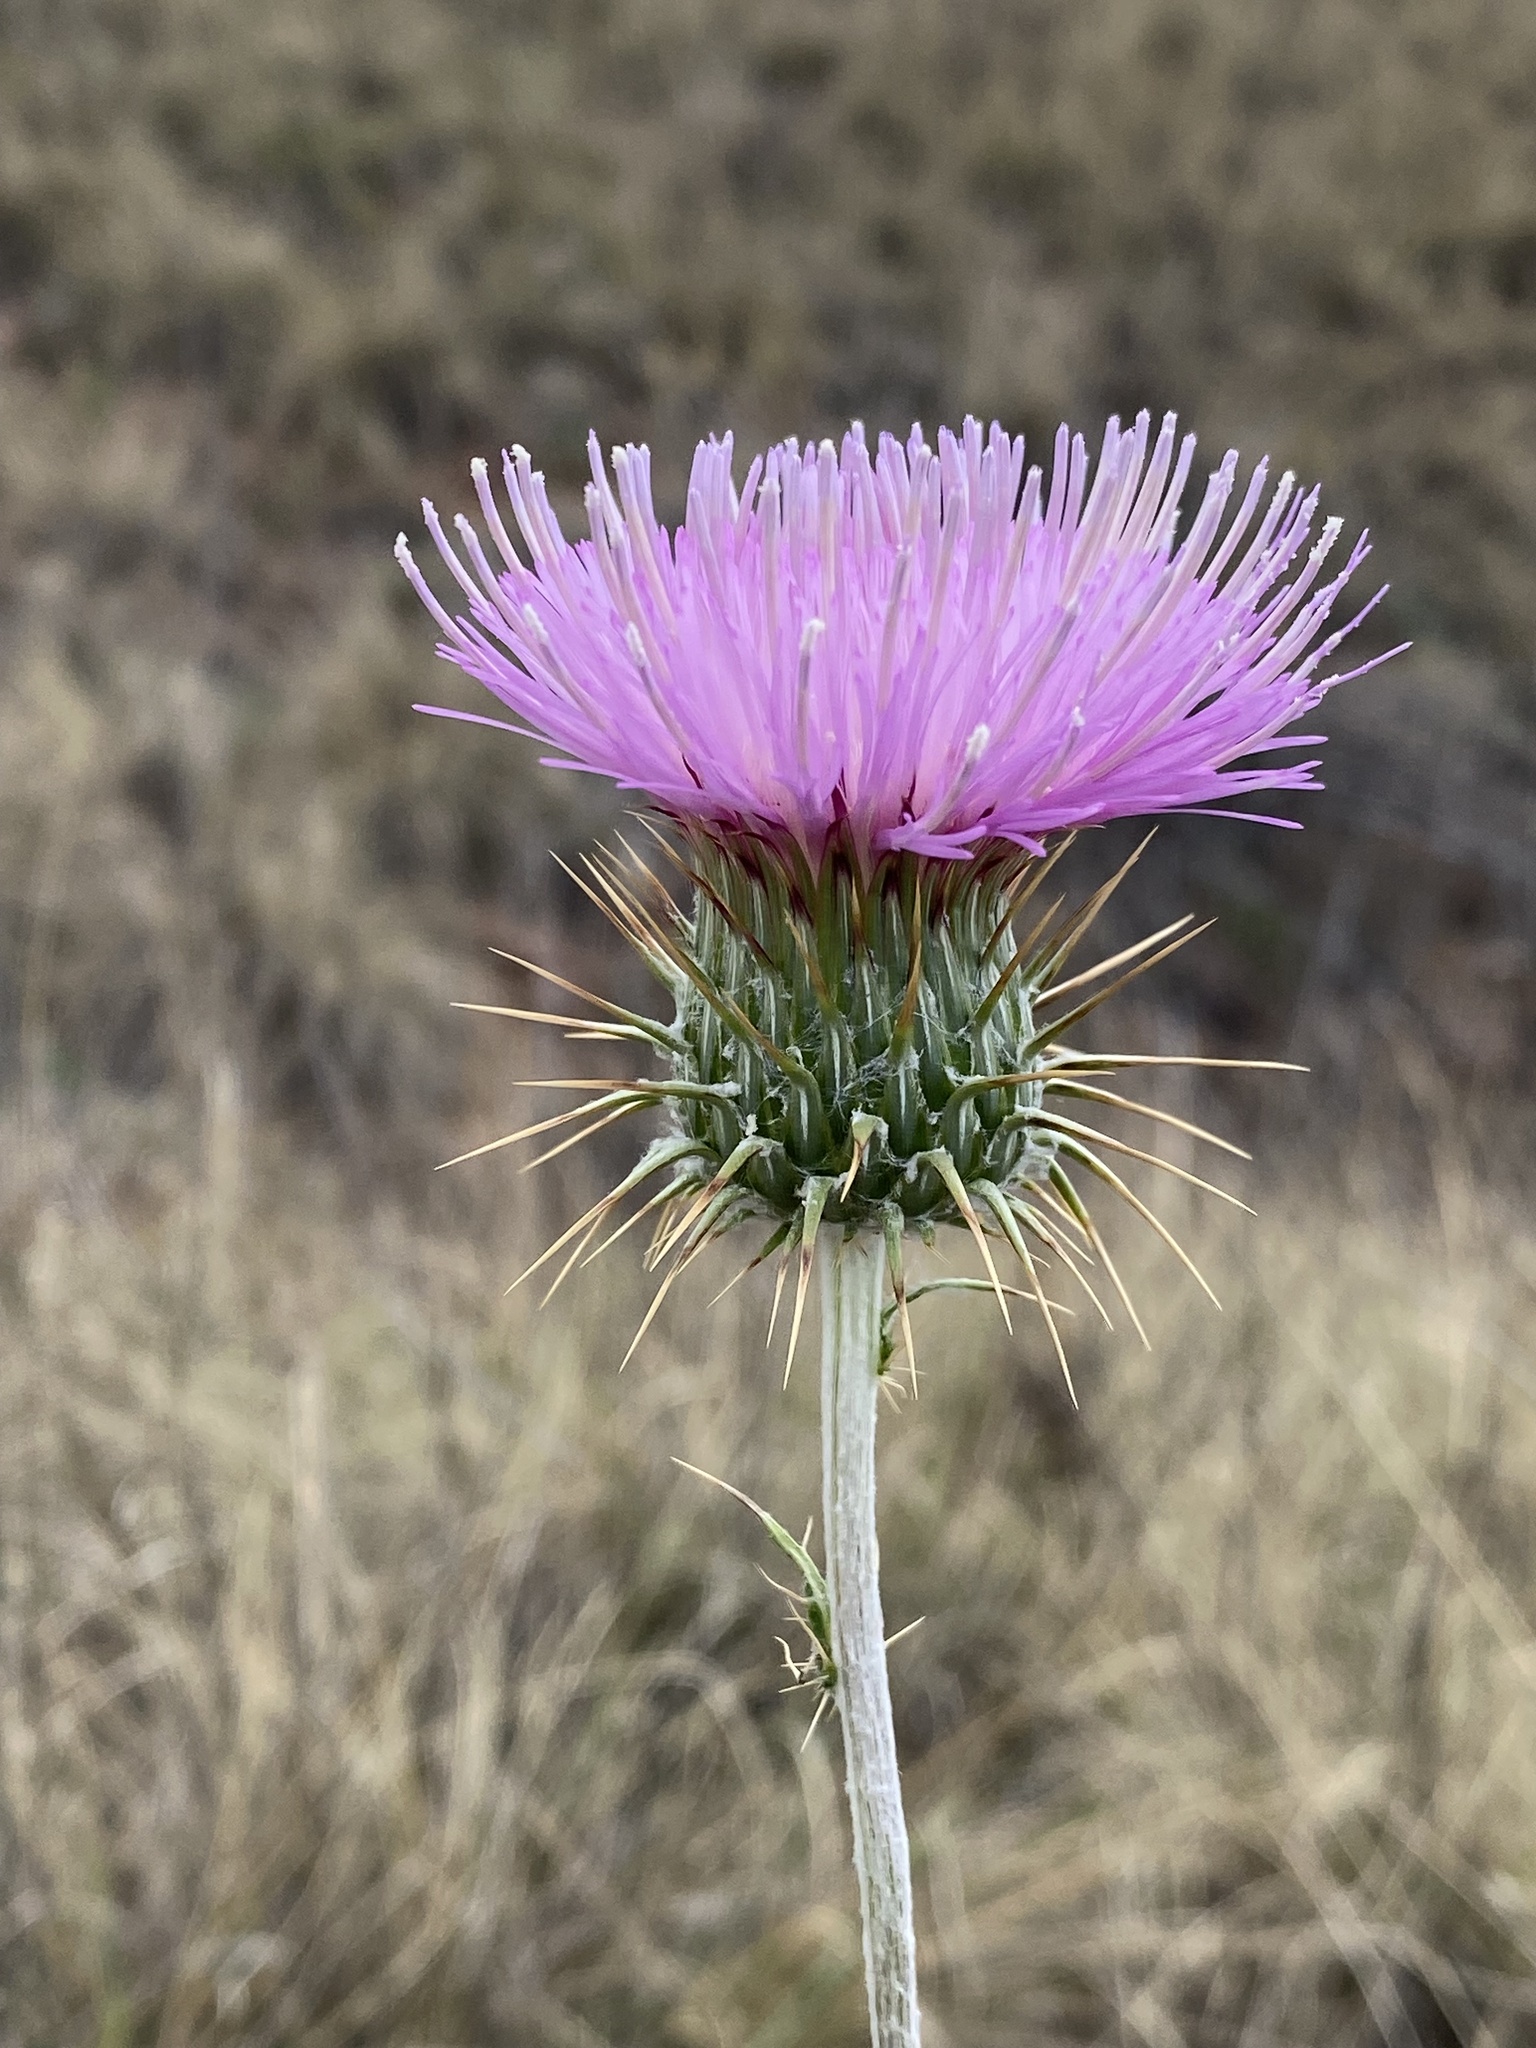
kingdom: Plantae
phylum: Tracheophyta
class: Magnoliopsida
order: Asterales
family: Asteraceae
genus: Cirsium
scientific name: Cirsium ochrocentrum
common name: Yellow-spine thistle
